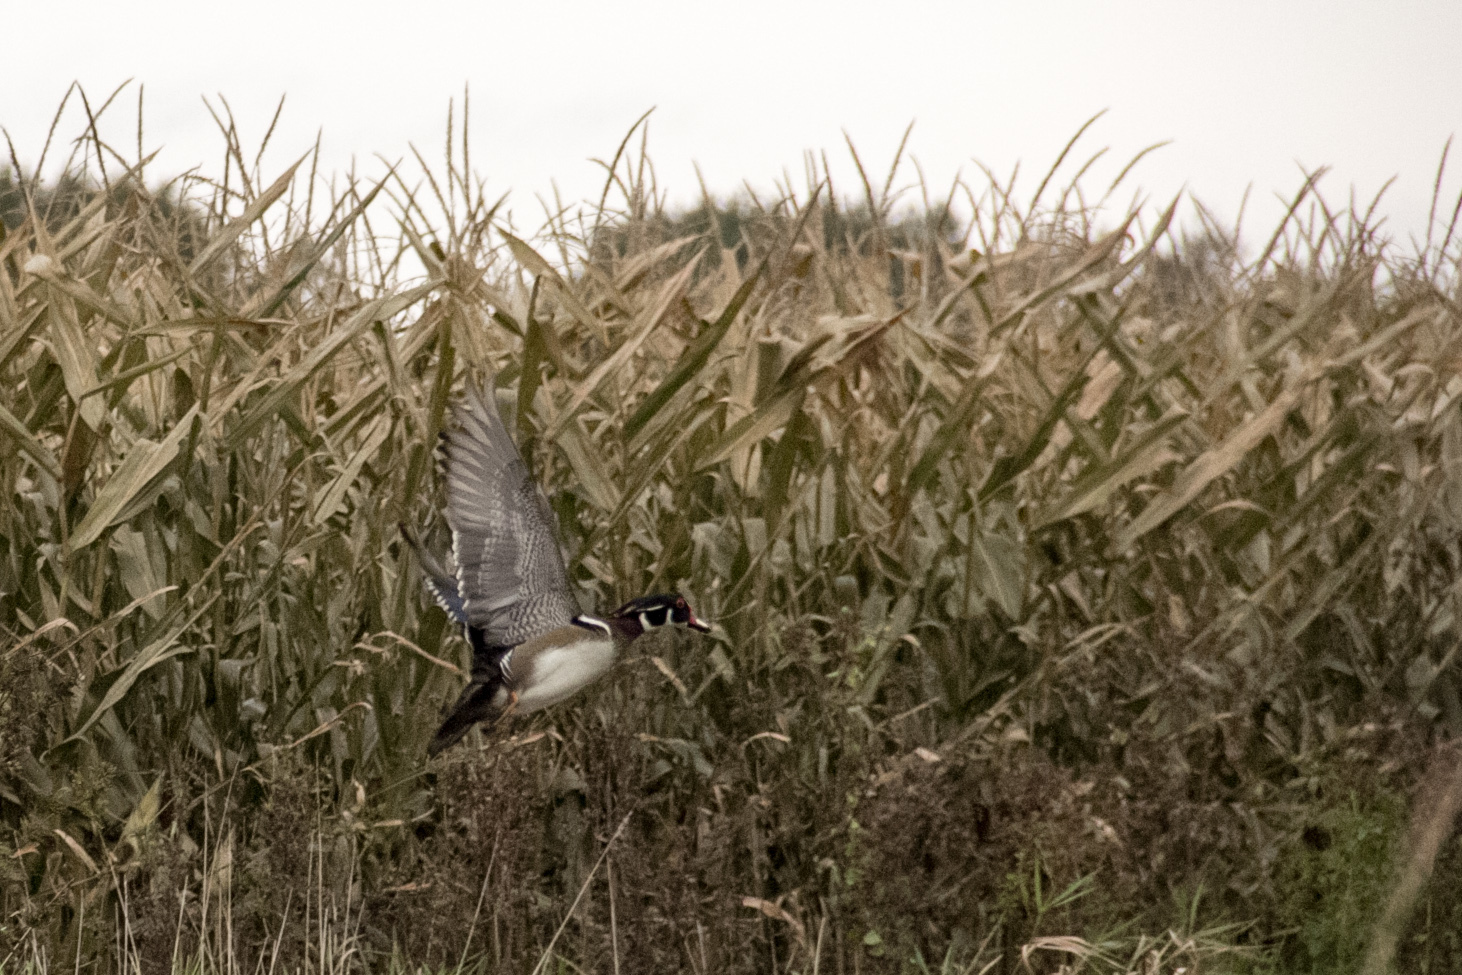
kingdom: Animalia
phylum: Chordata
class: Aves
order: Anseriformes
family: Anatidae
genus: Aix
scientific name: Aix sponsa
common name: Wood duck
